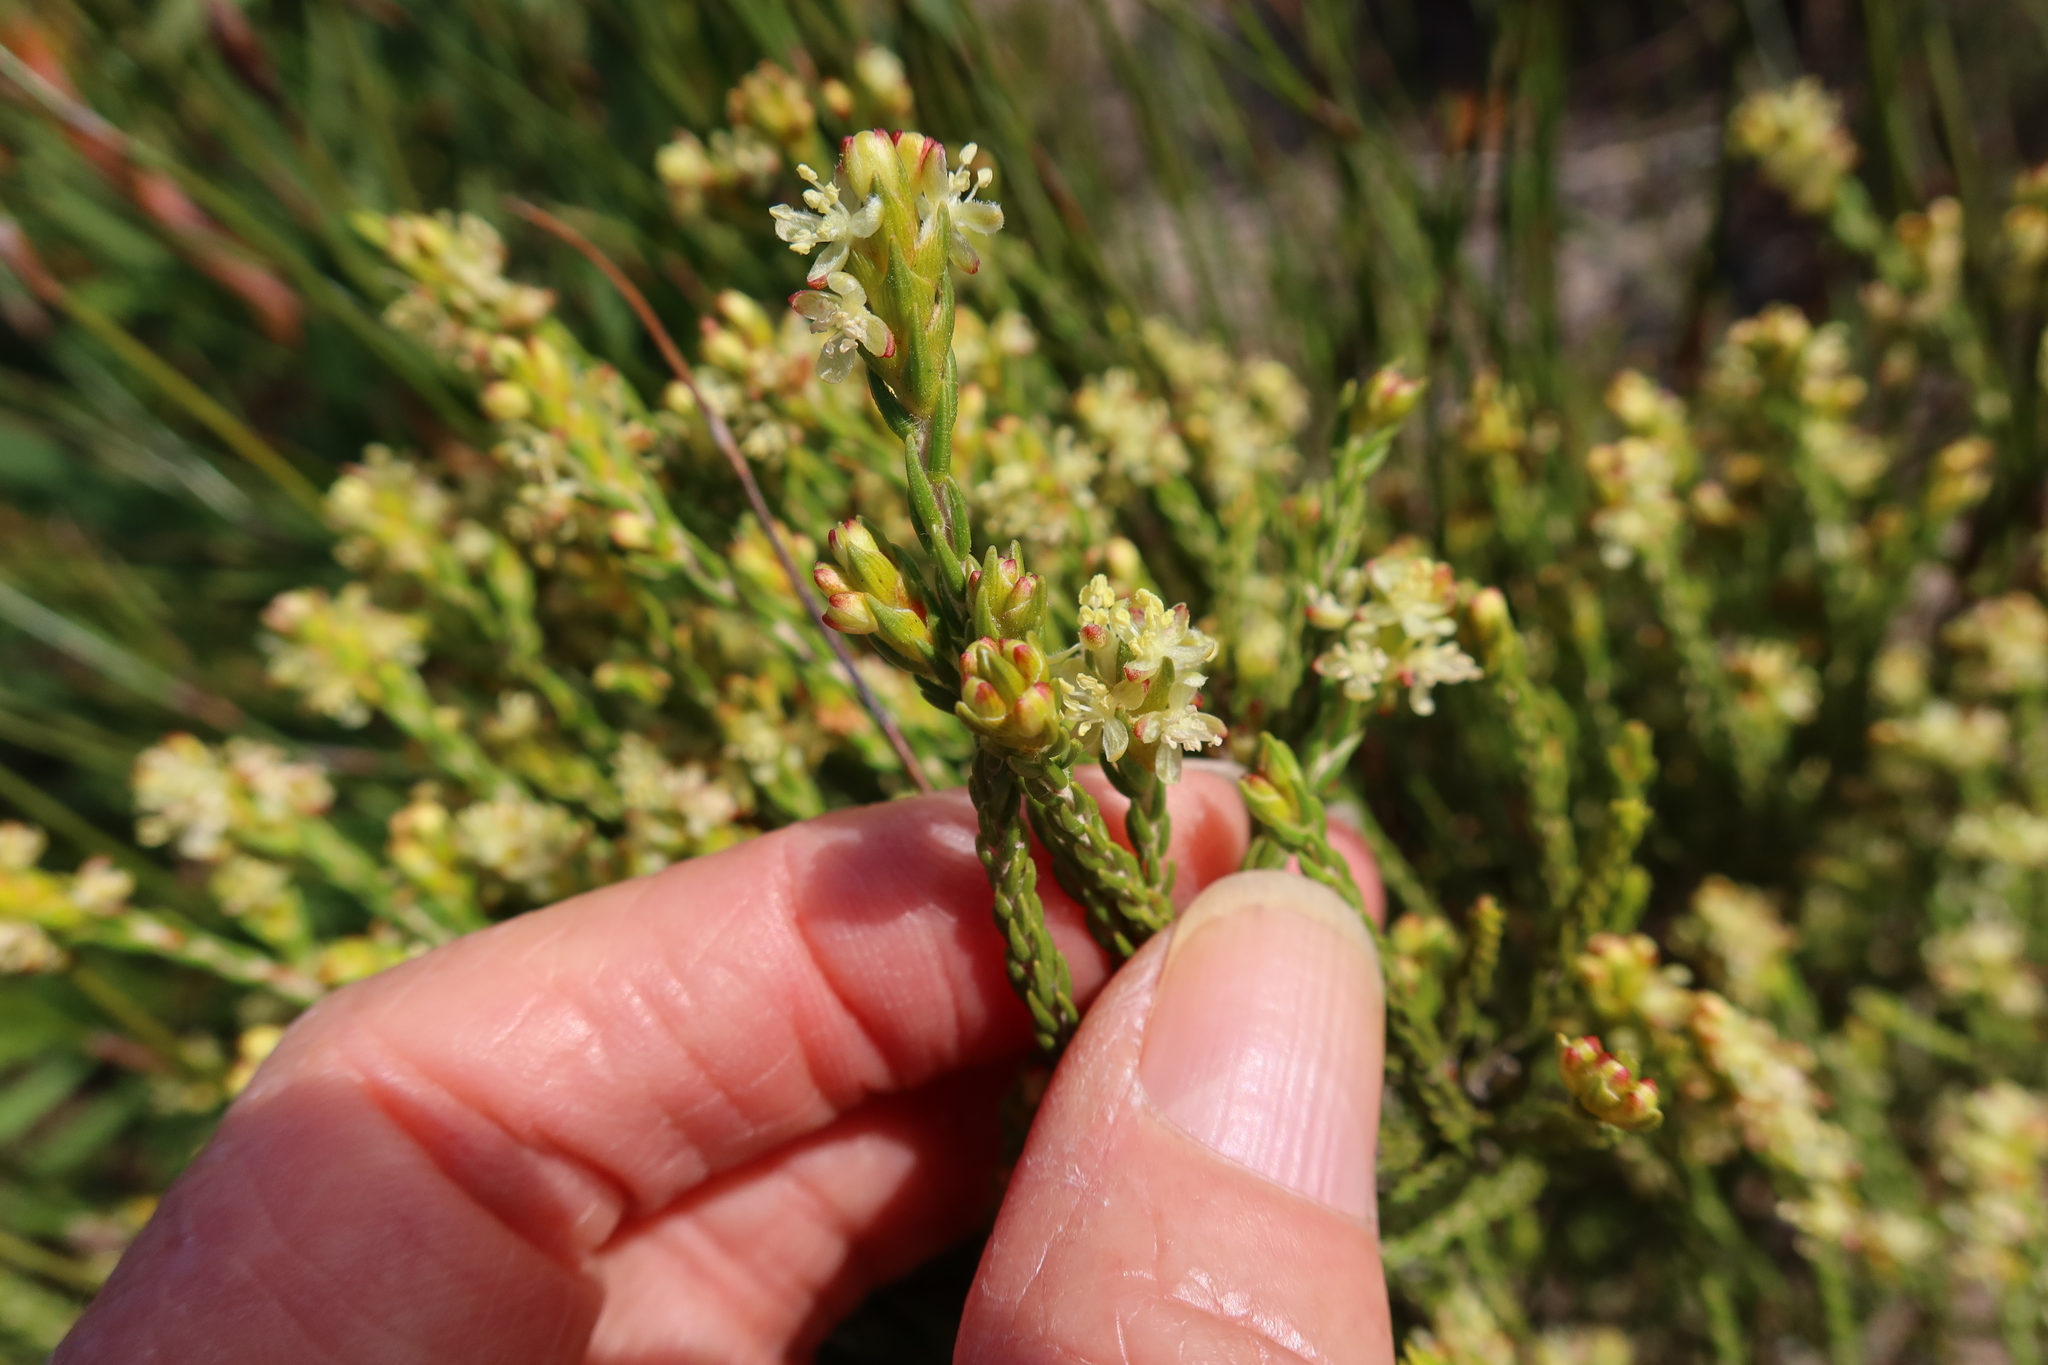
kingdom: Plantae
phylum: Tracheophyta
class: Magnoliopsida
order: Malvales
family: Thymelaeaceae
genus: Passerina
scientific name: Passerina filiformis
